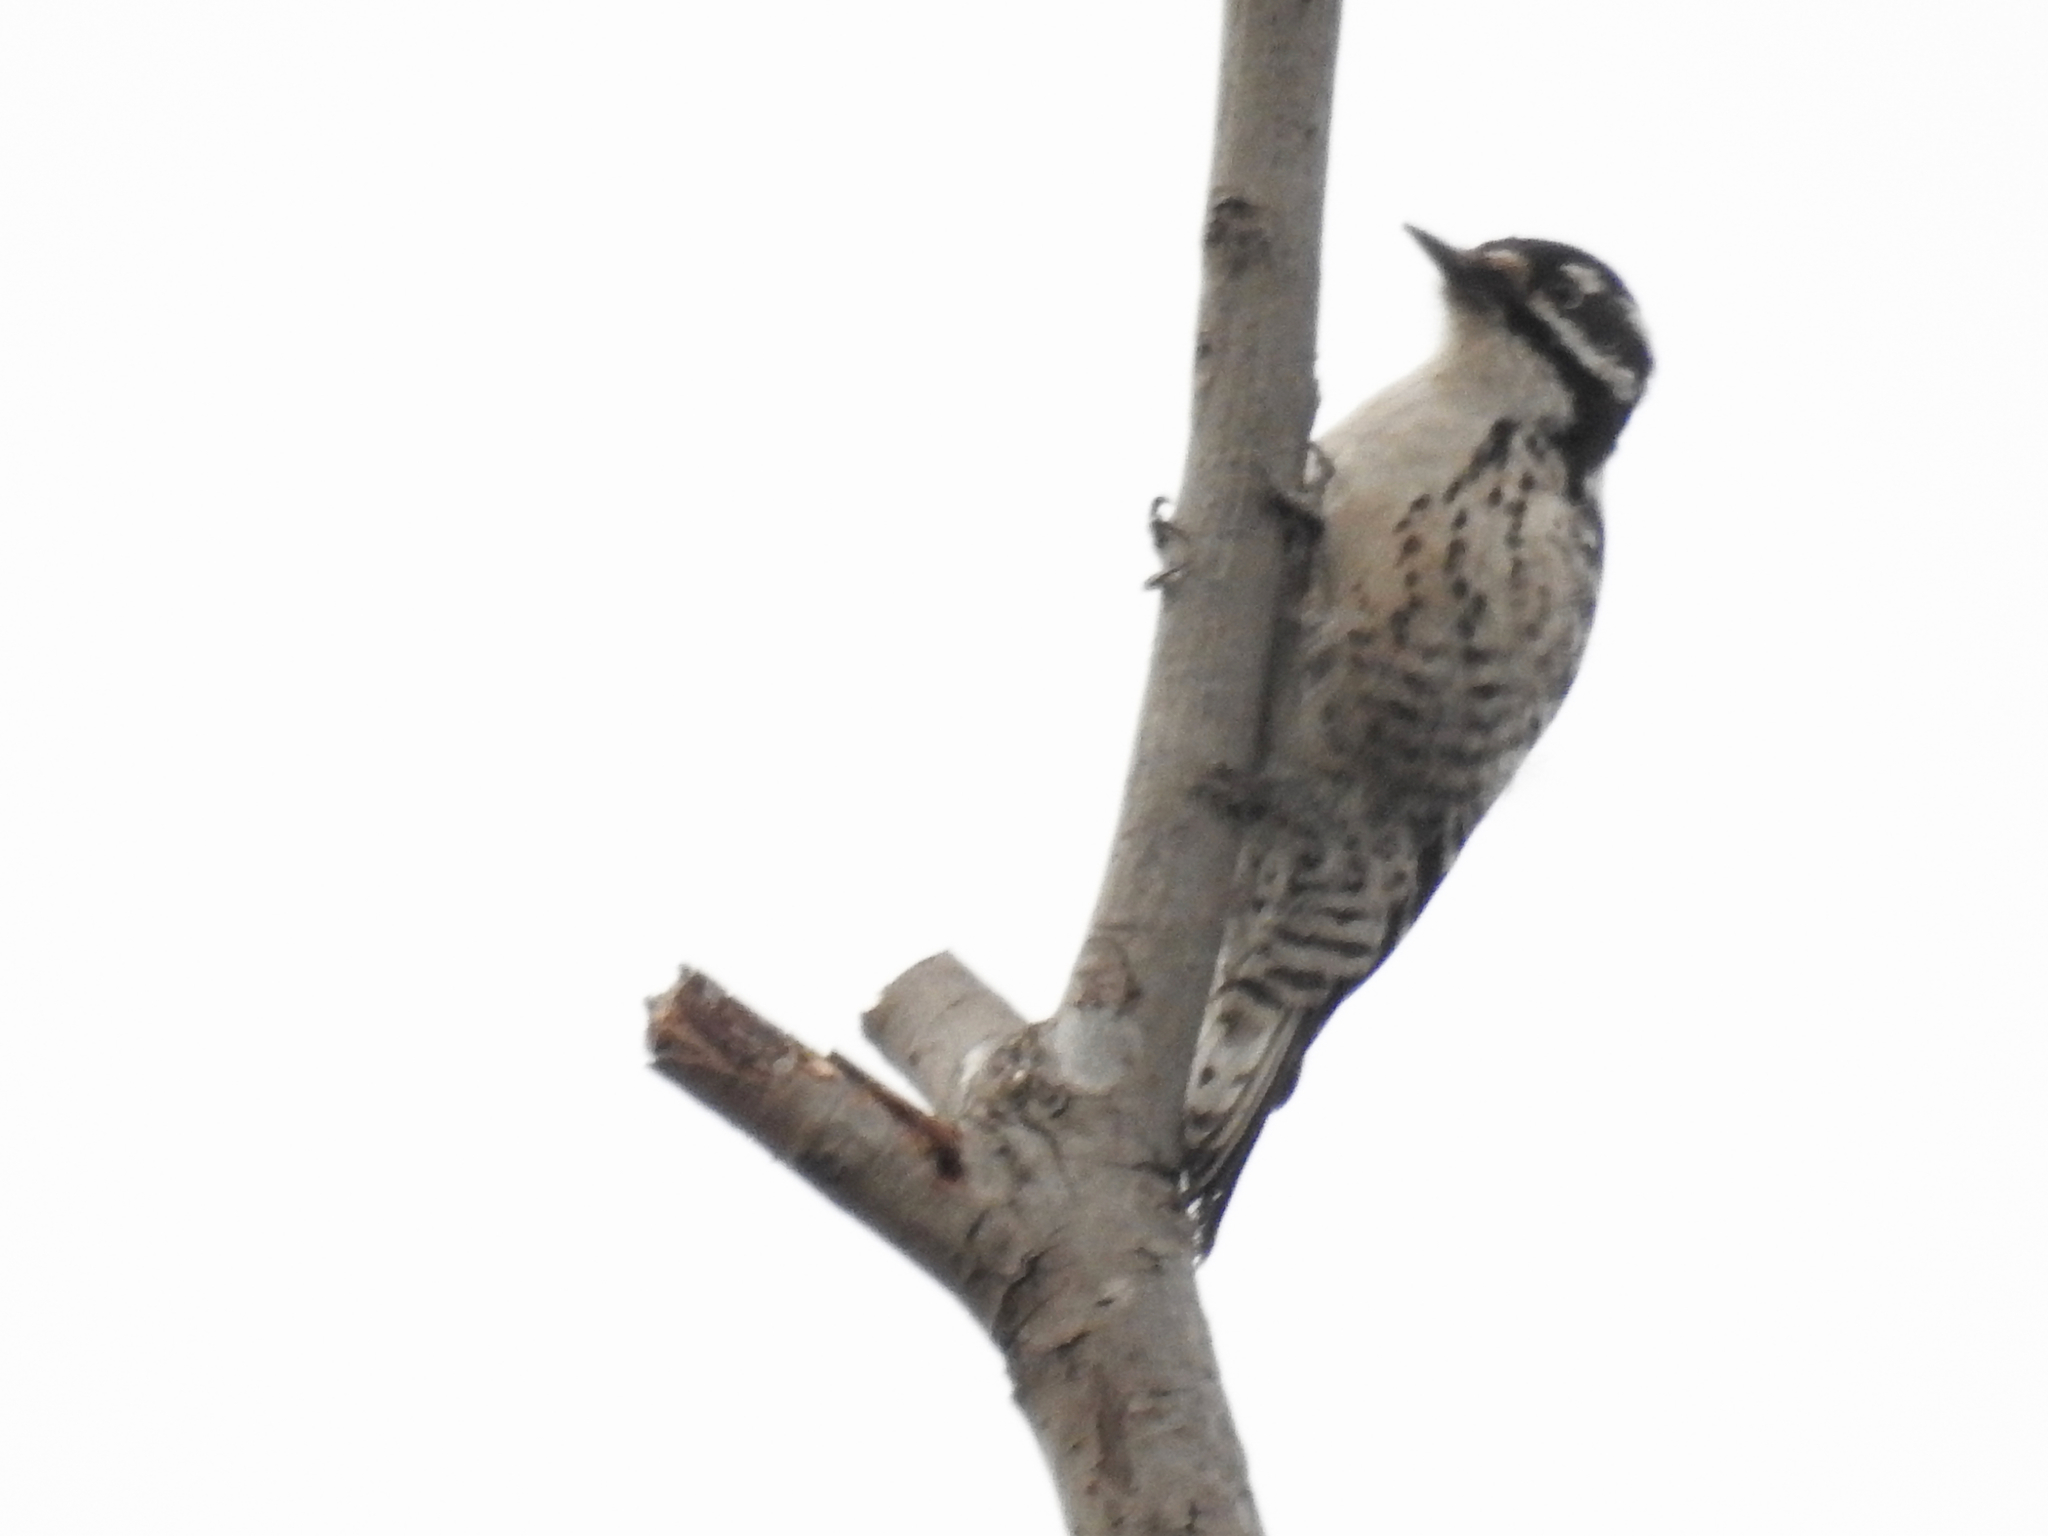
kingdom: Animalia
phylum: Chordata
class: Aves
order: Piciformes
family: Picidae
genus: Dryobates
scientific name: Dryobates nuttallii
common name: Nuttall's woodpecker
